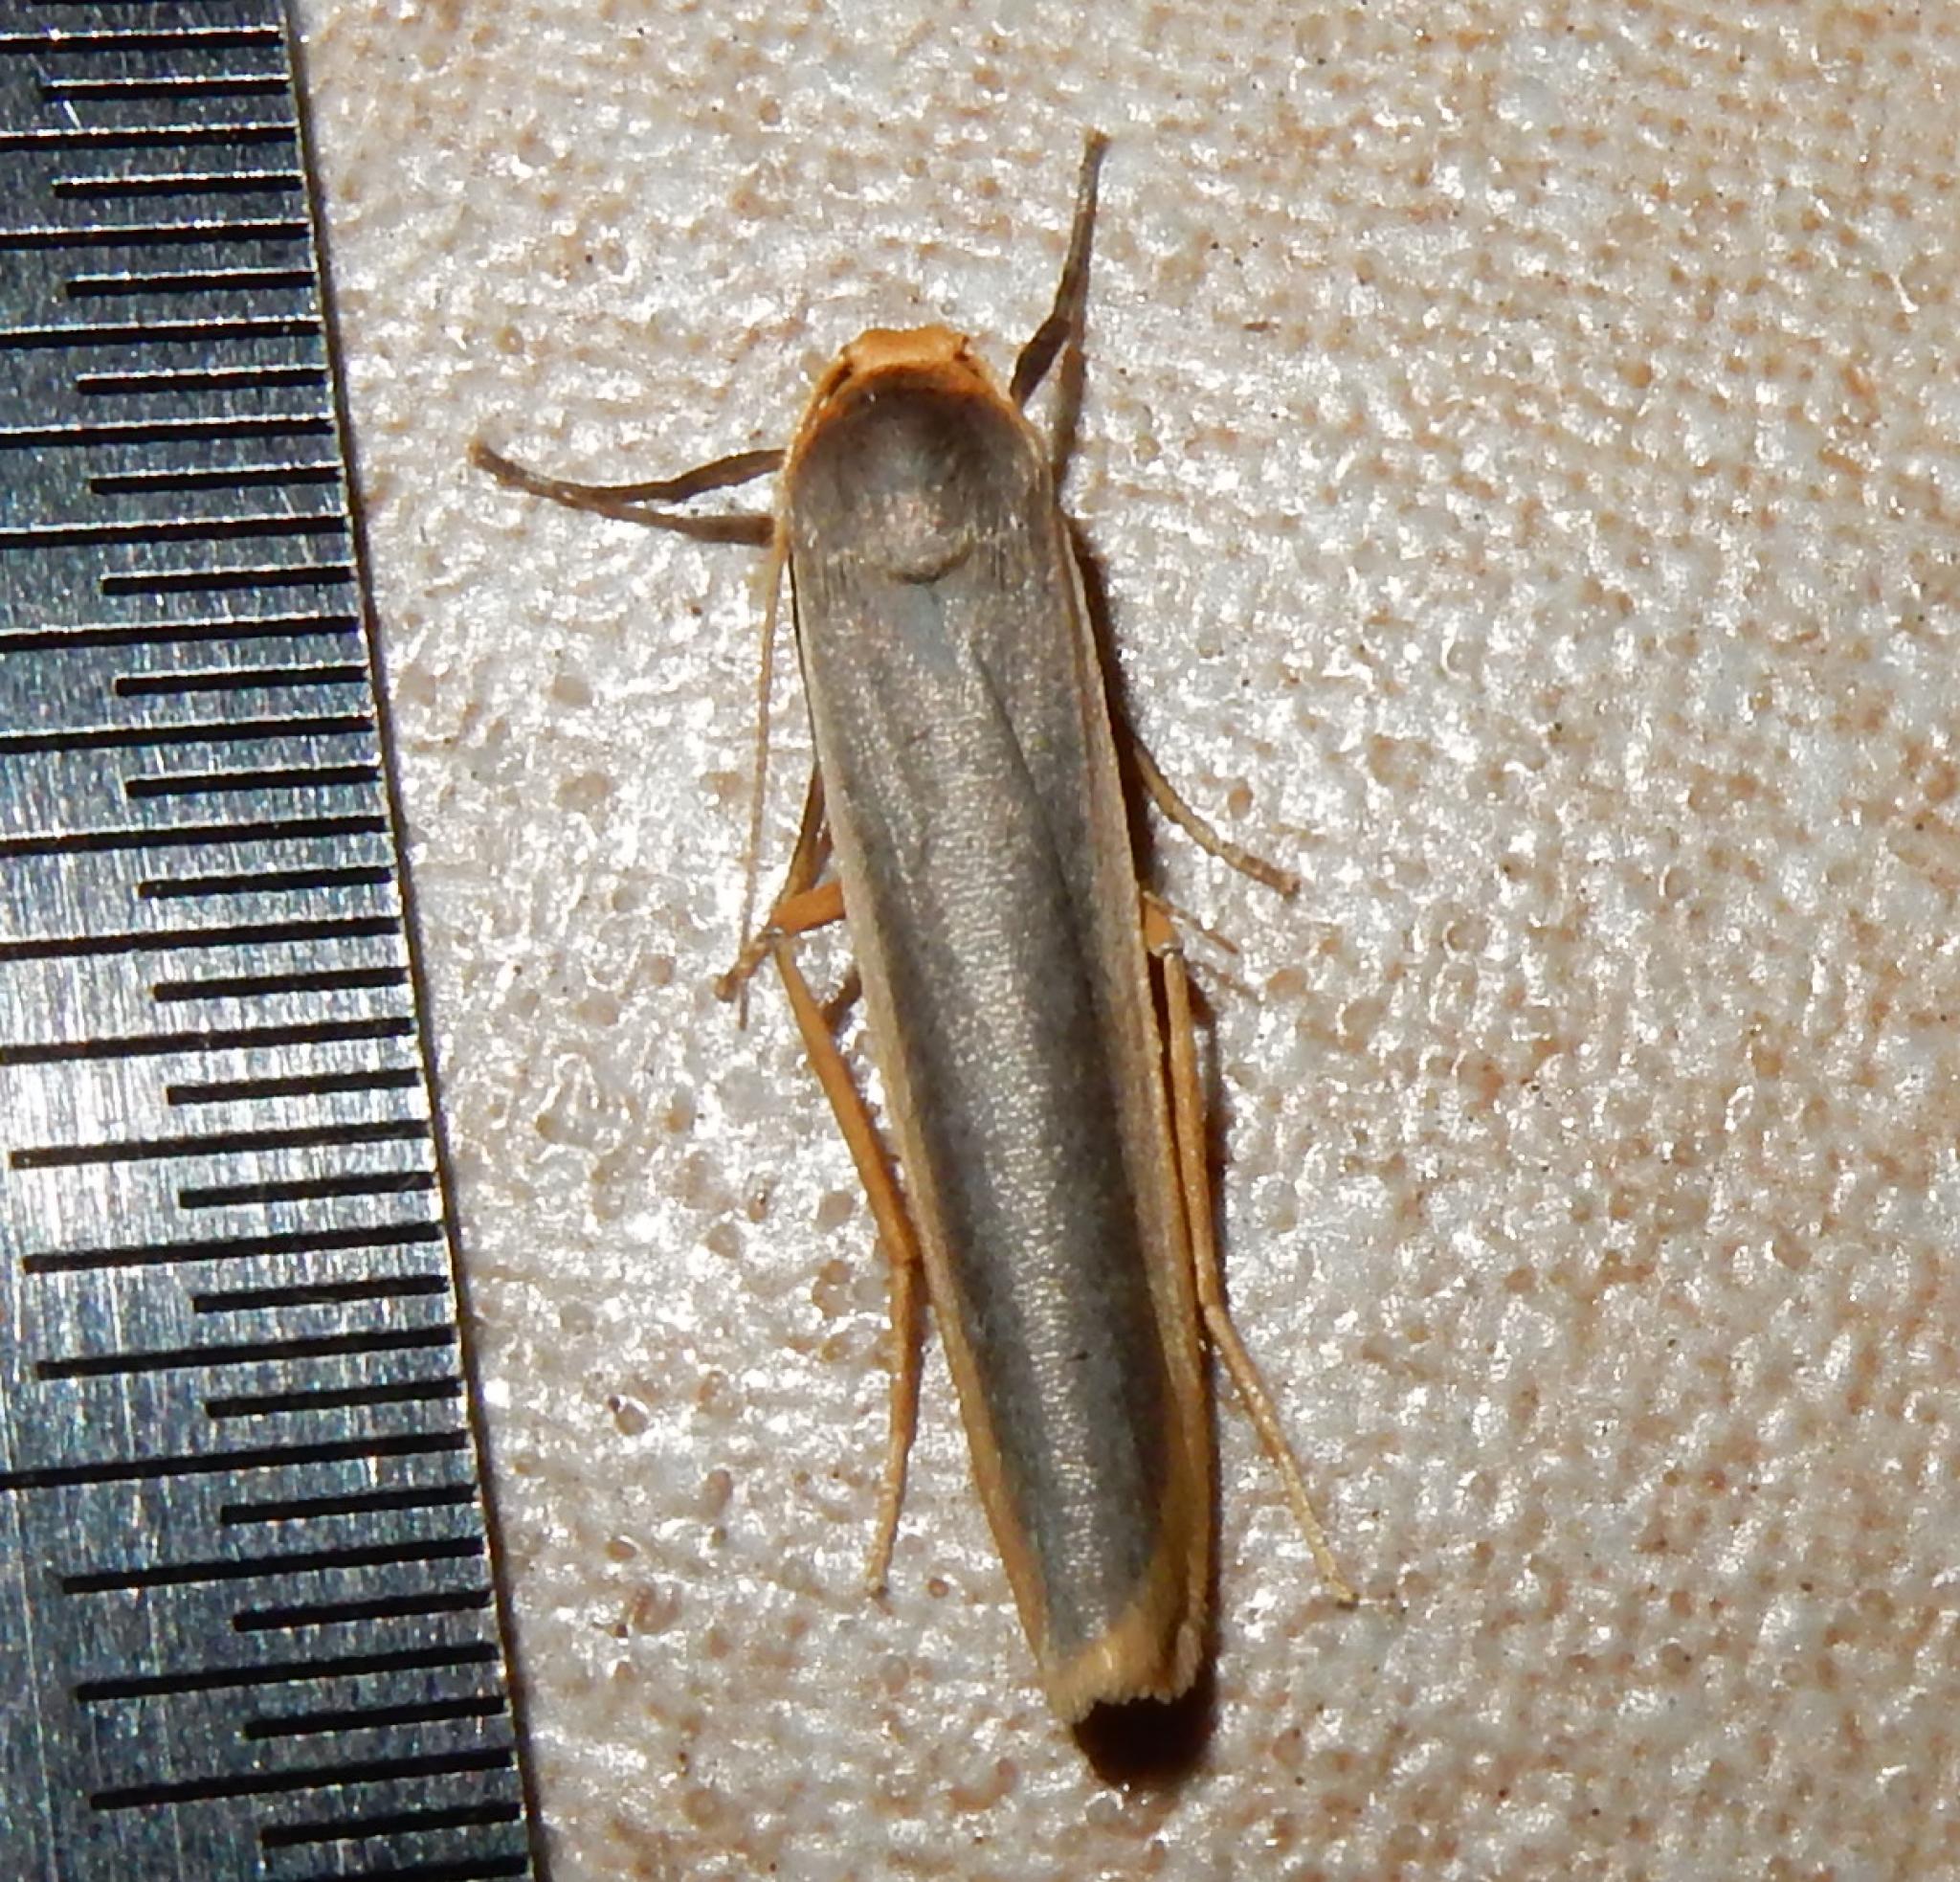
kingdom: Animalia
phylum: Arthropoda
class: Insecta
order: Lepidoptera
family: Erebidae
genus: Brunia
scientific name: Brunia vicaria
